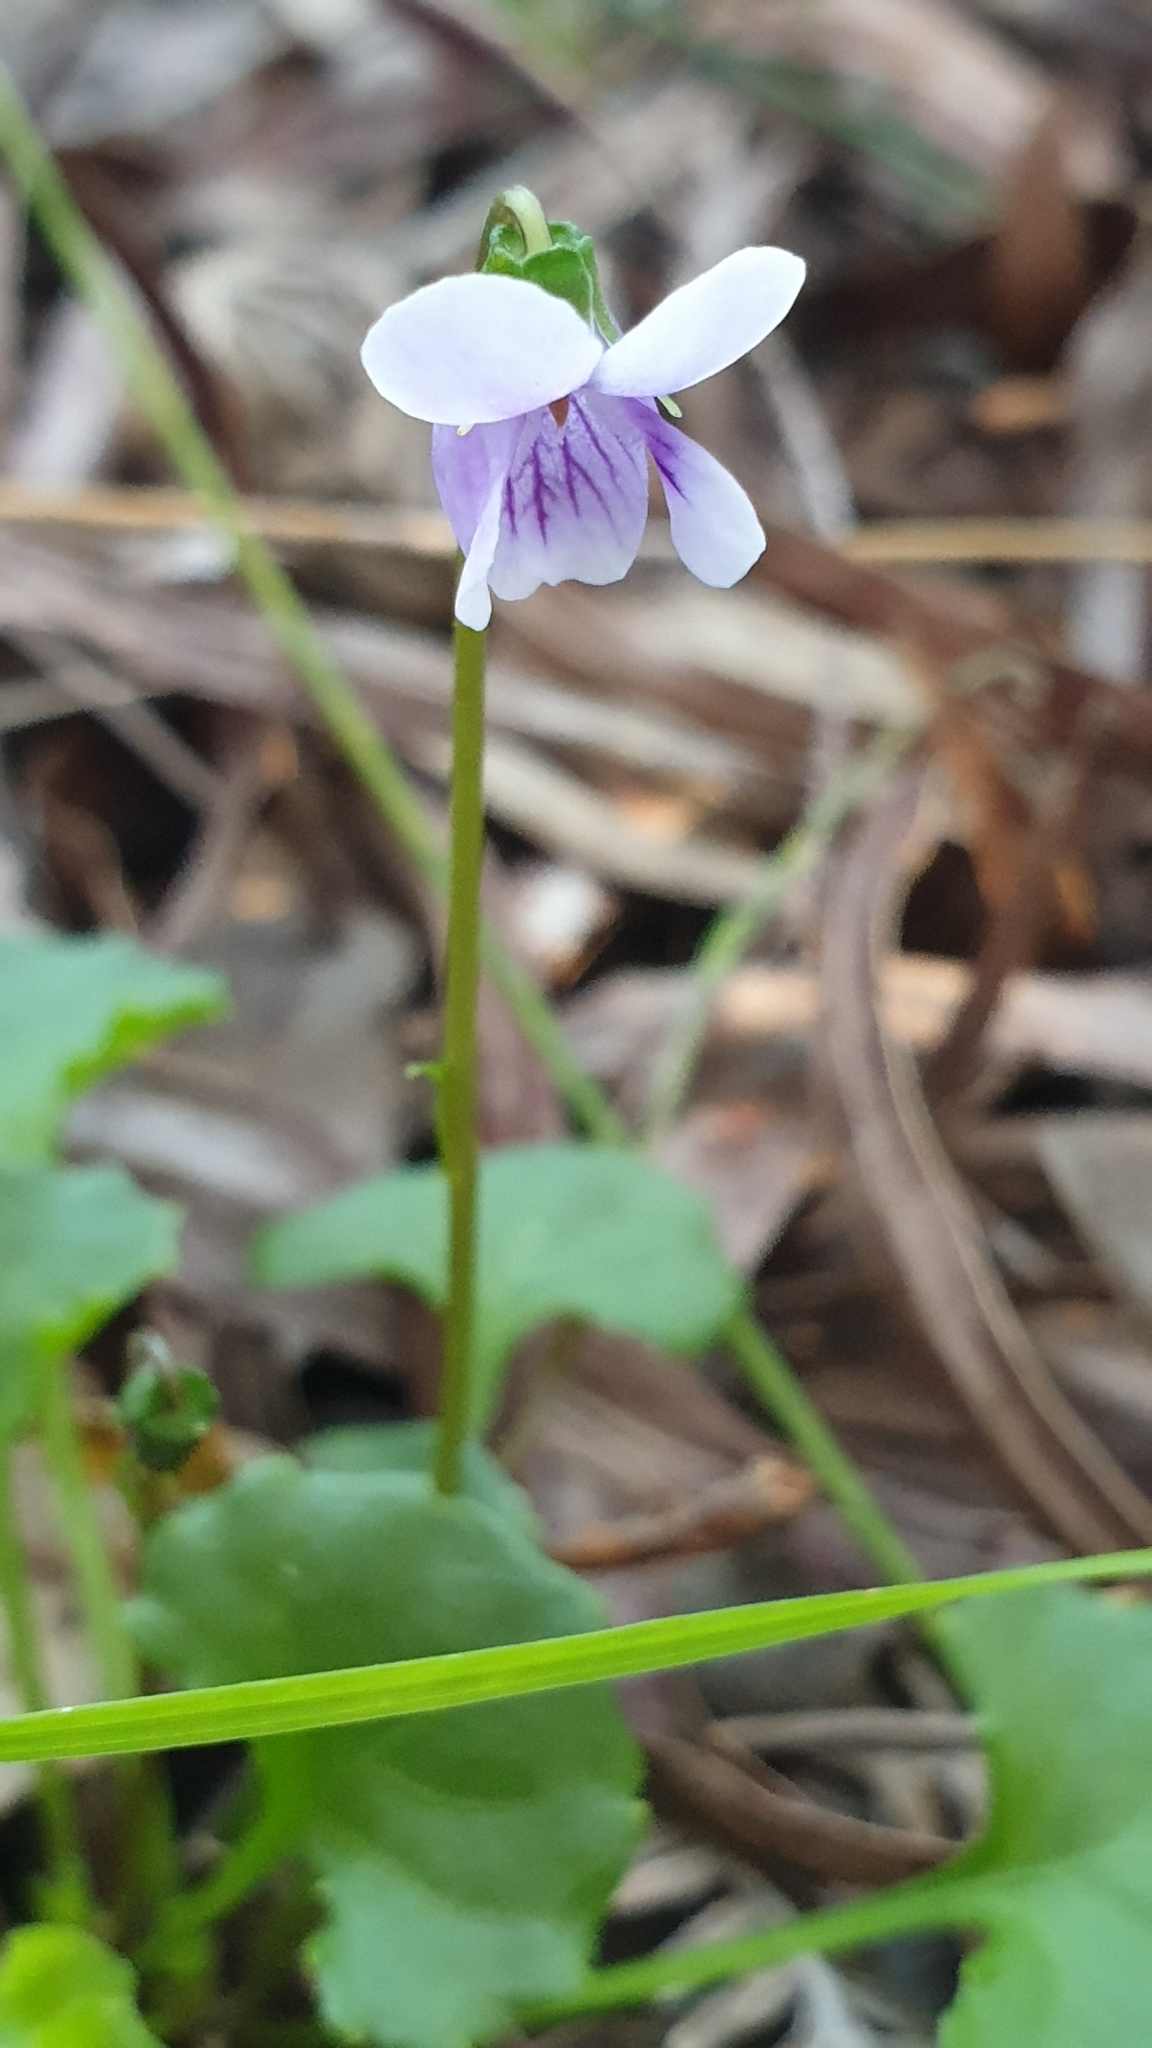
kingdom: Plantae
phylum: Tracheophyta
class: Magnoliopsida
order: Malpighiales
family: Violaceae
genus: Viola
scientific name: Viola hederacea
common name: Australian violet
